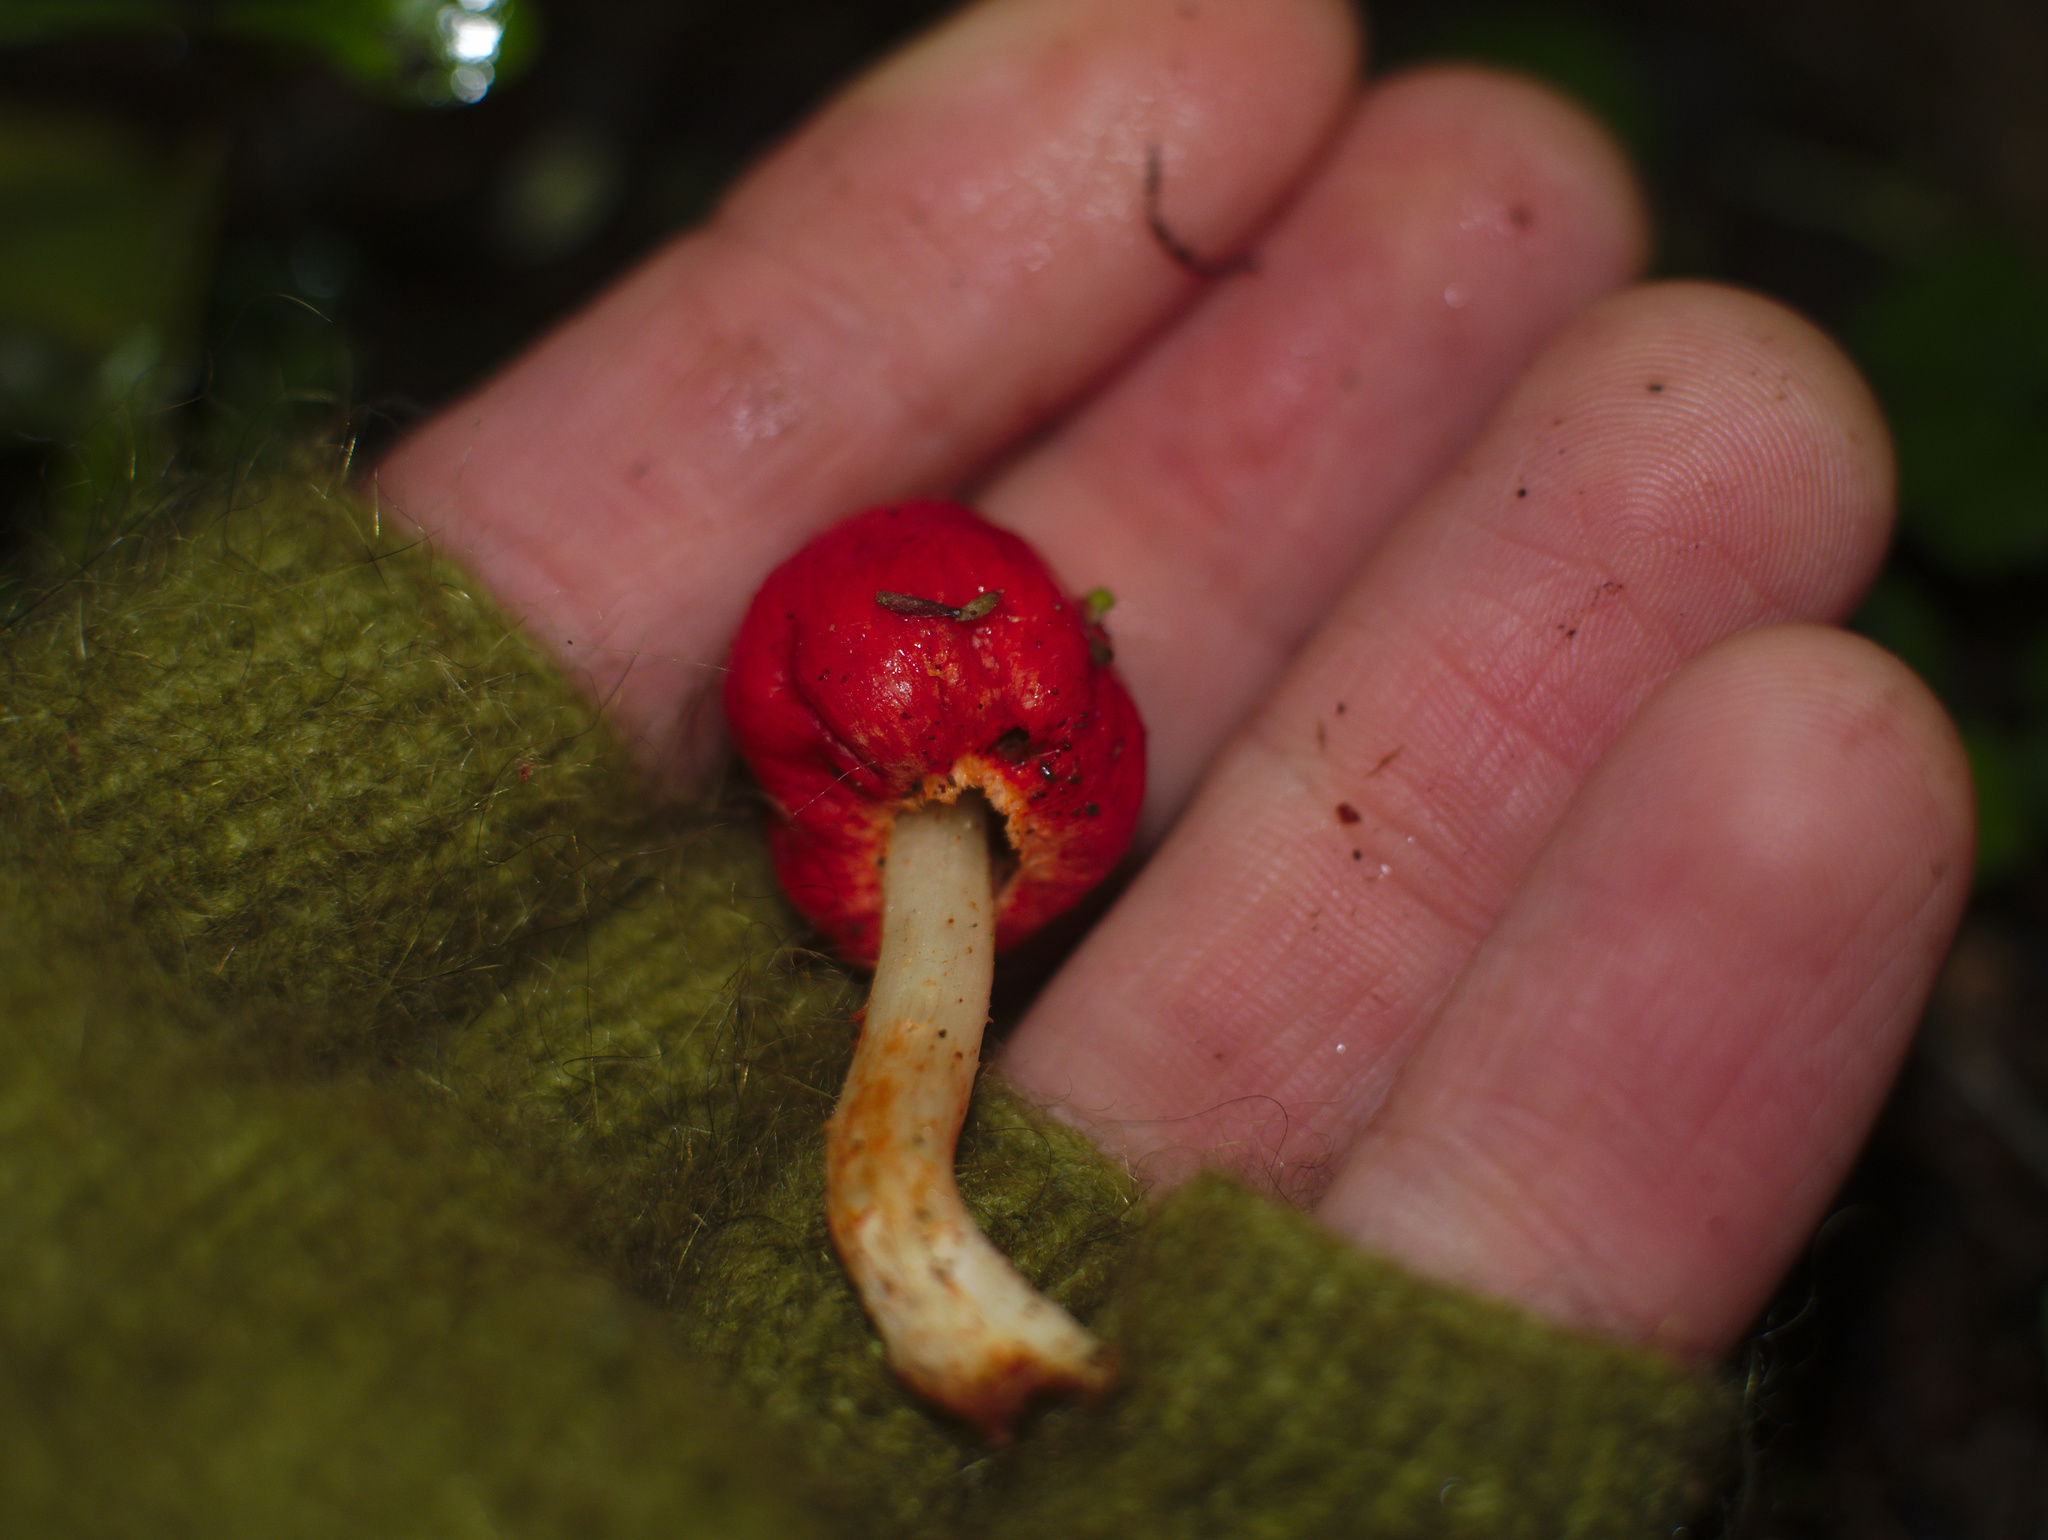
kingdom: Fungi
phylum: Basidiomycota
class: Agaricomycetes
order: Agaricales
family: Strophariaceae
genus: Leratiomyces
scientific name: Leratiomyces erythrocephalus
